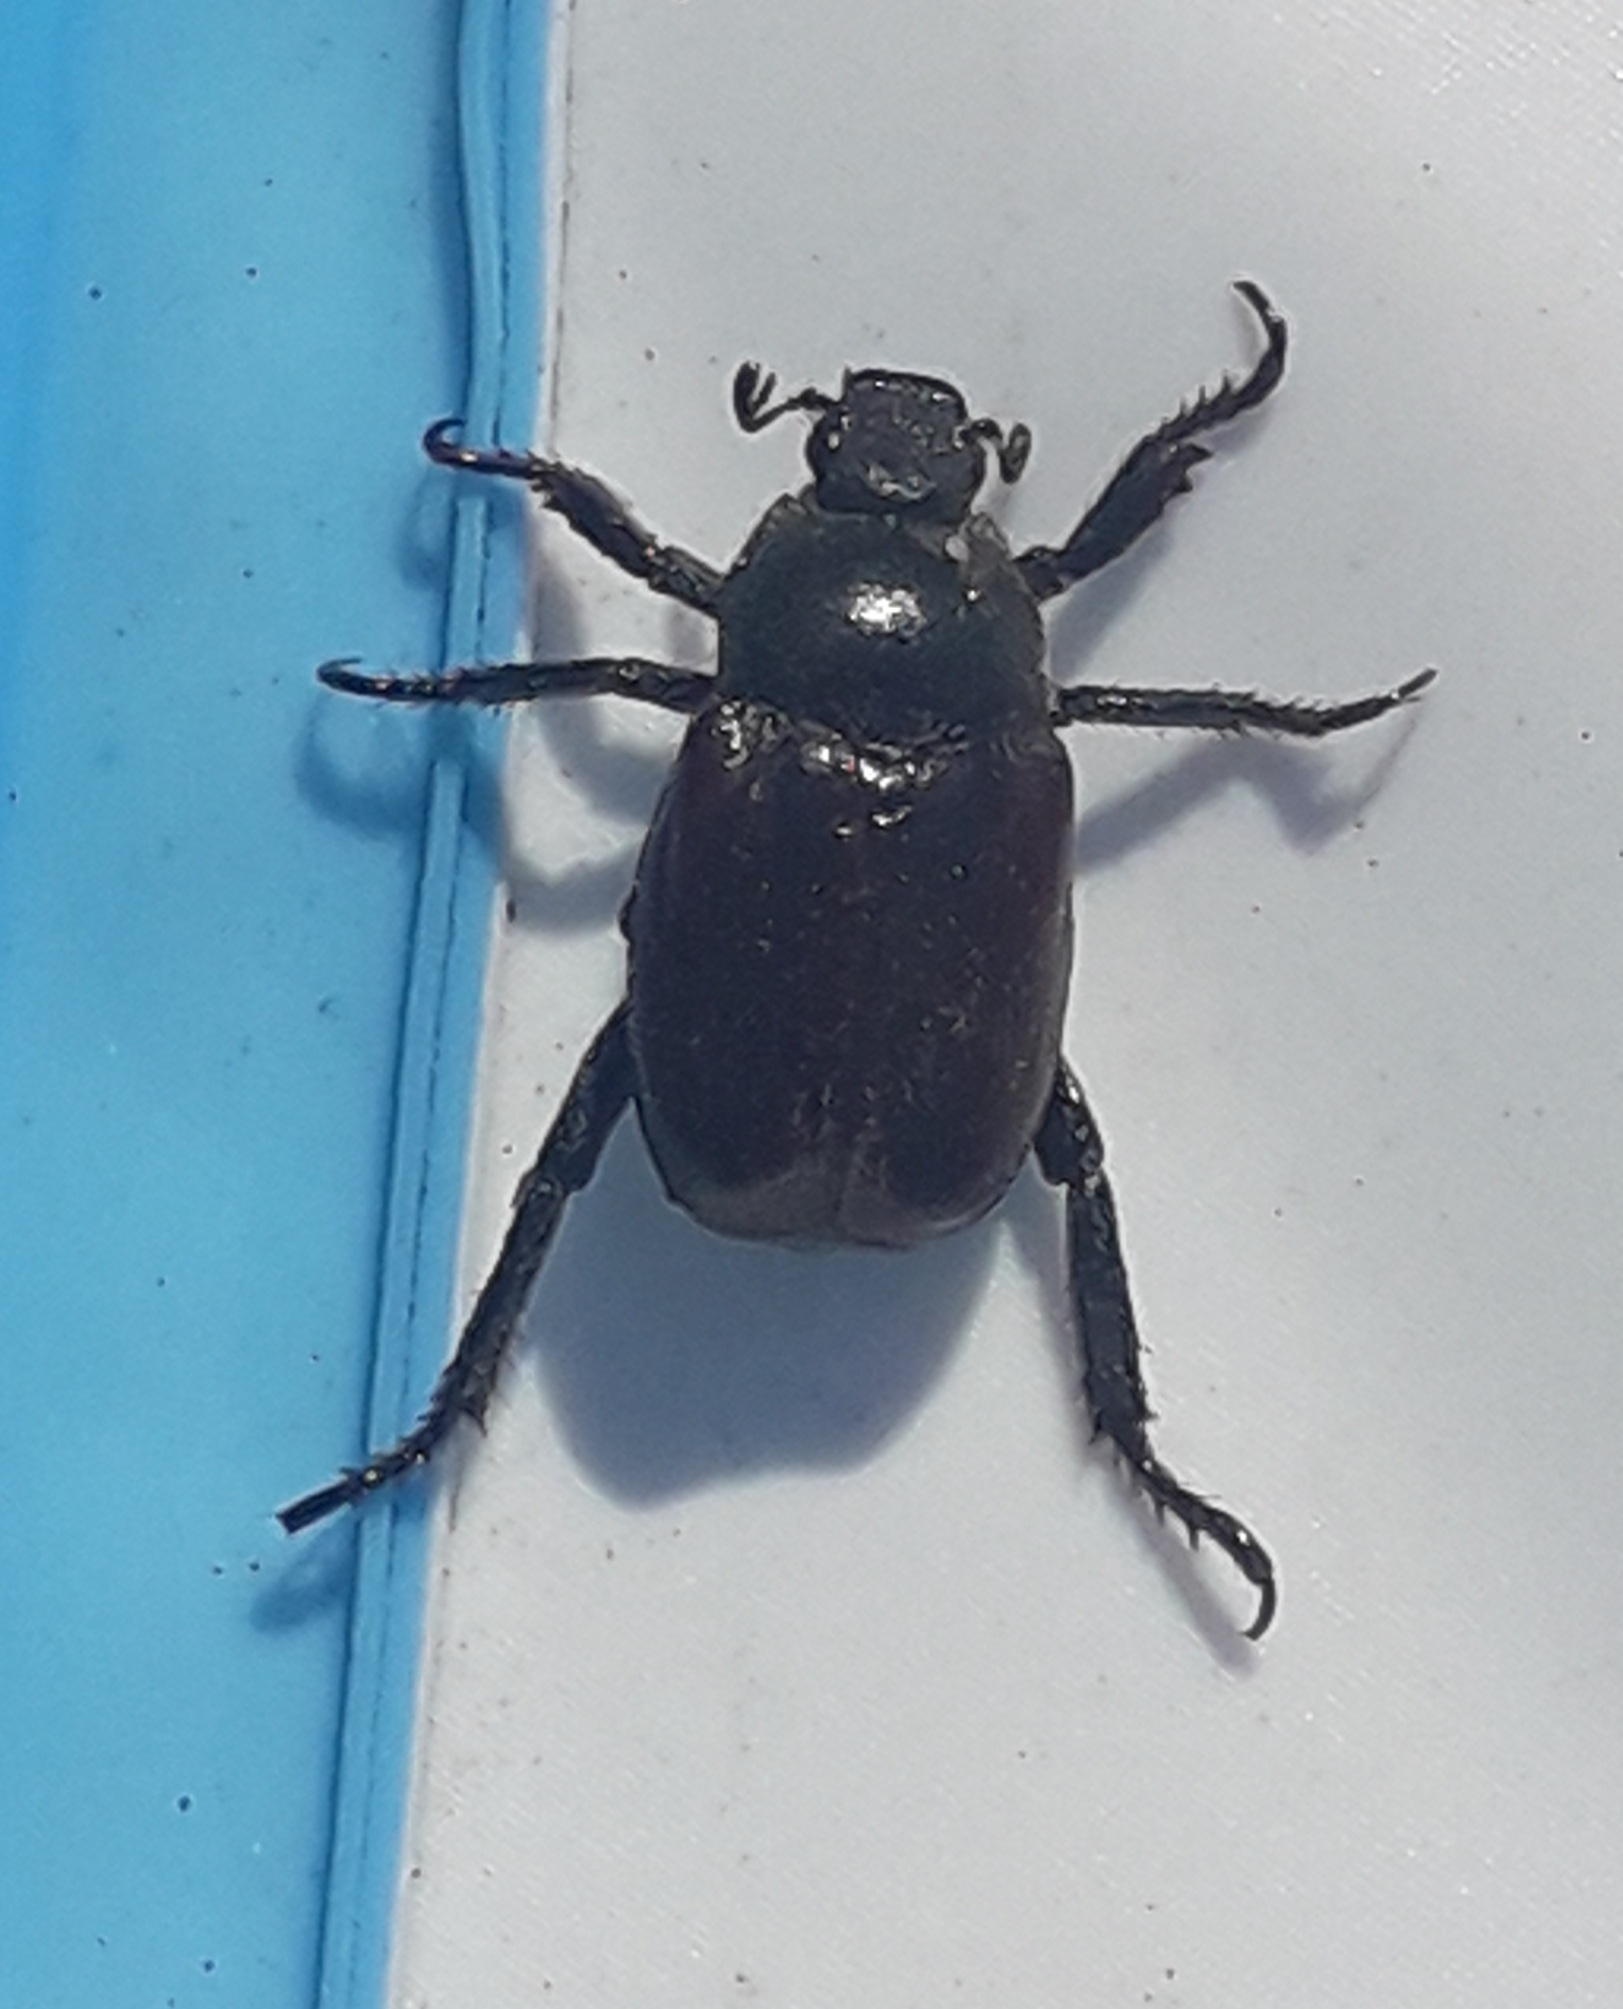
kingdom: Animalia
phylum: Arthropoda
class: Insecta
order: Coleoptera
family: Scarabaeidae
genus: Hoplia
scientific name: Hoplia philanthus
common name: Welsh chafer
